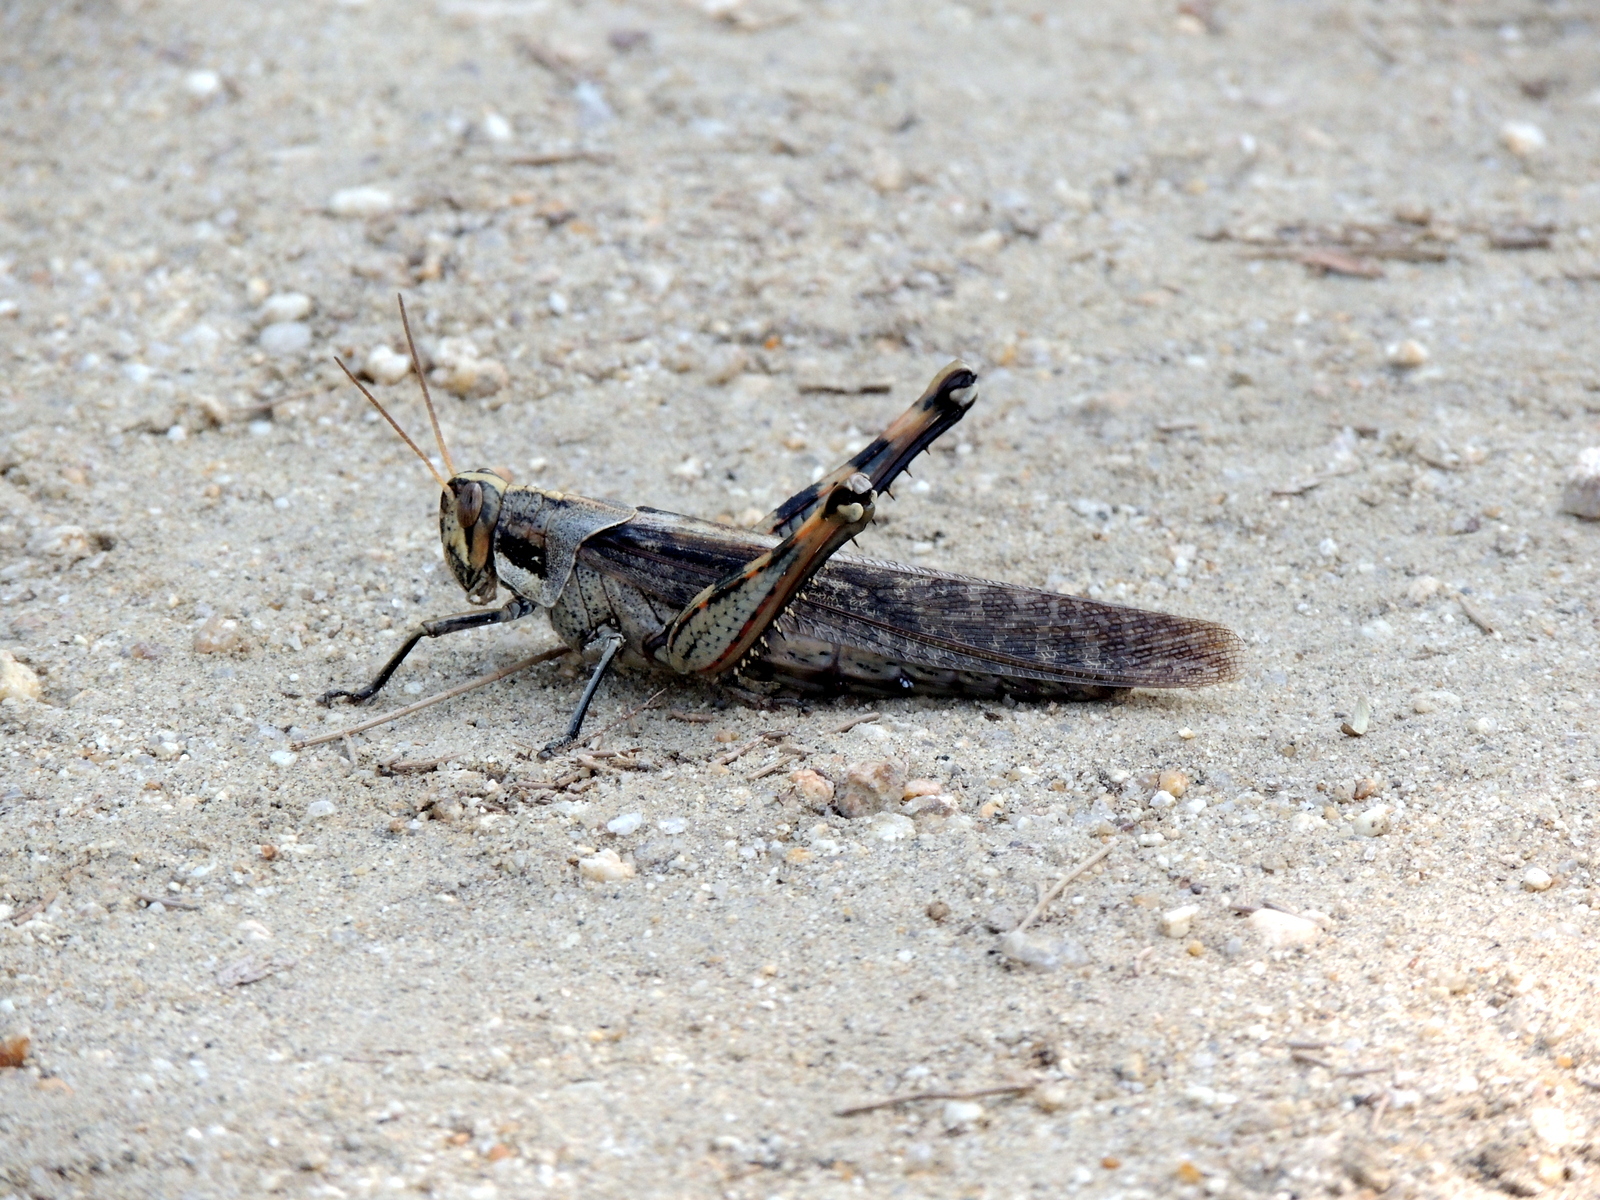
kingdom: Animalia
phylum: Arthropoda
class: Insecta
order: Orthoptera
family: Acrididae
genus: Schistocerca
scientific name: Schistocerca nitens
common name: Vagrant grasshopper
